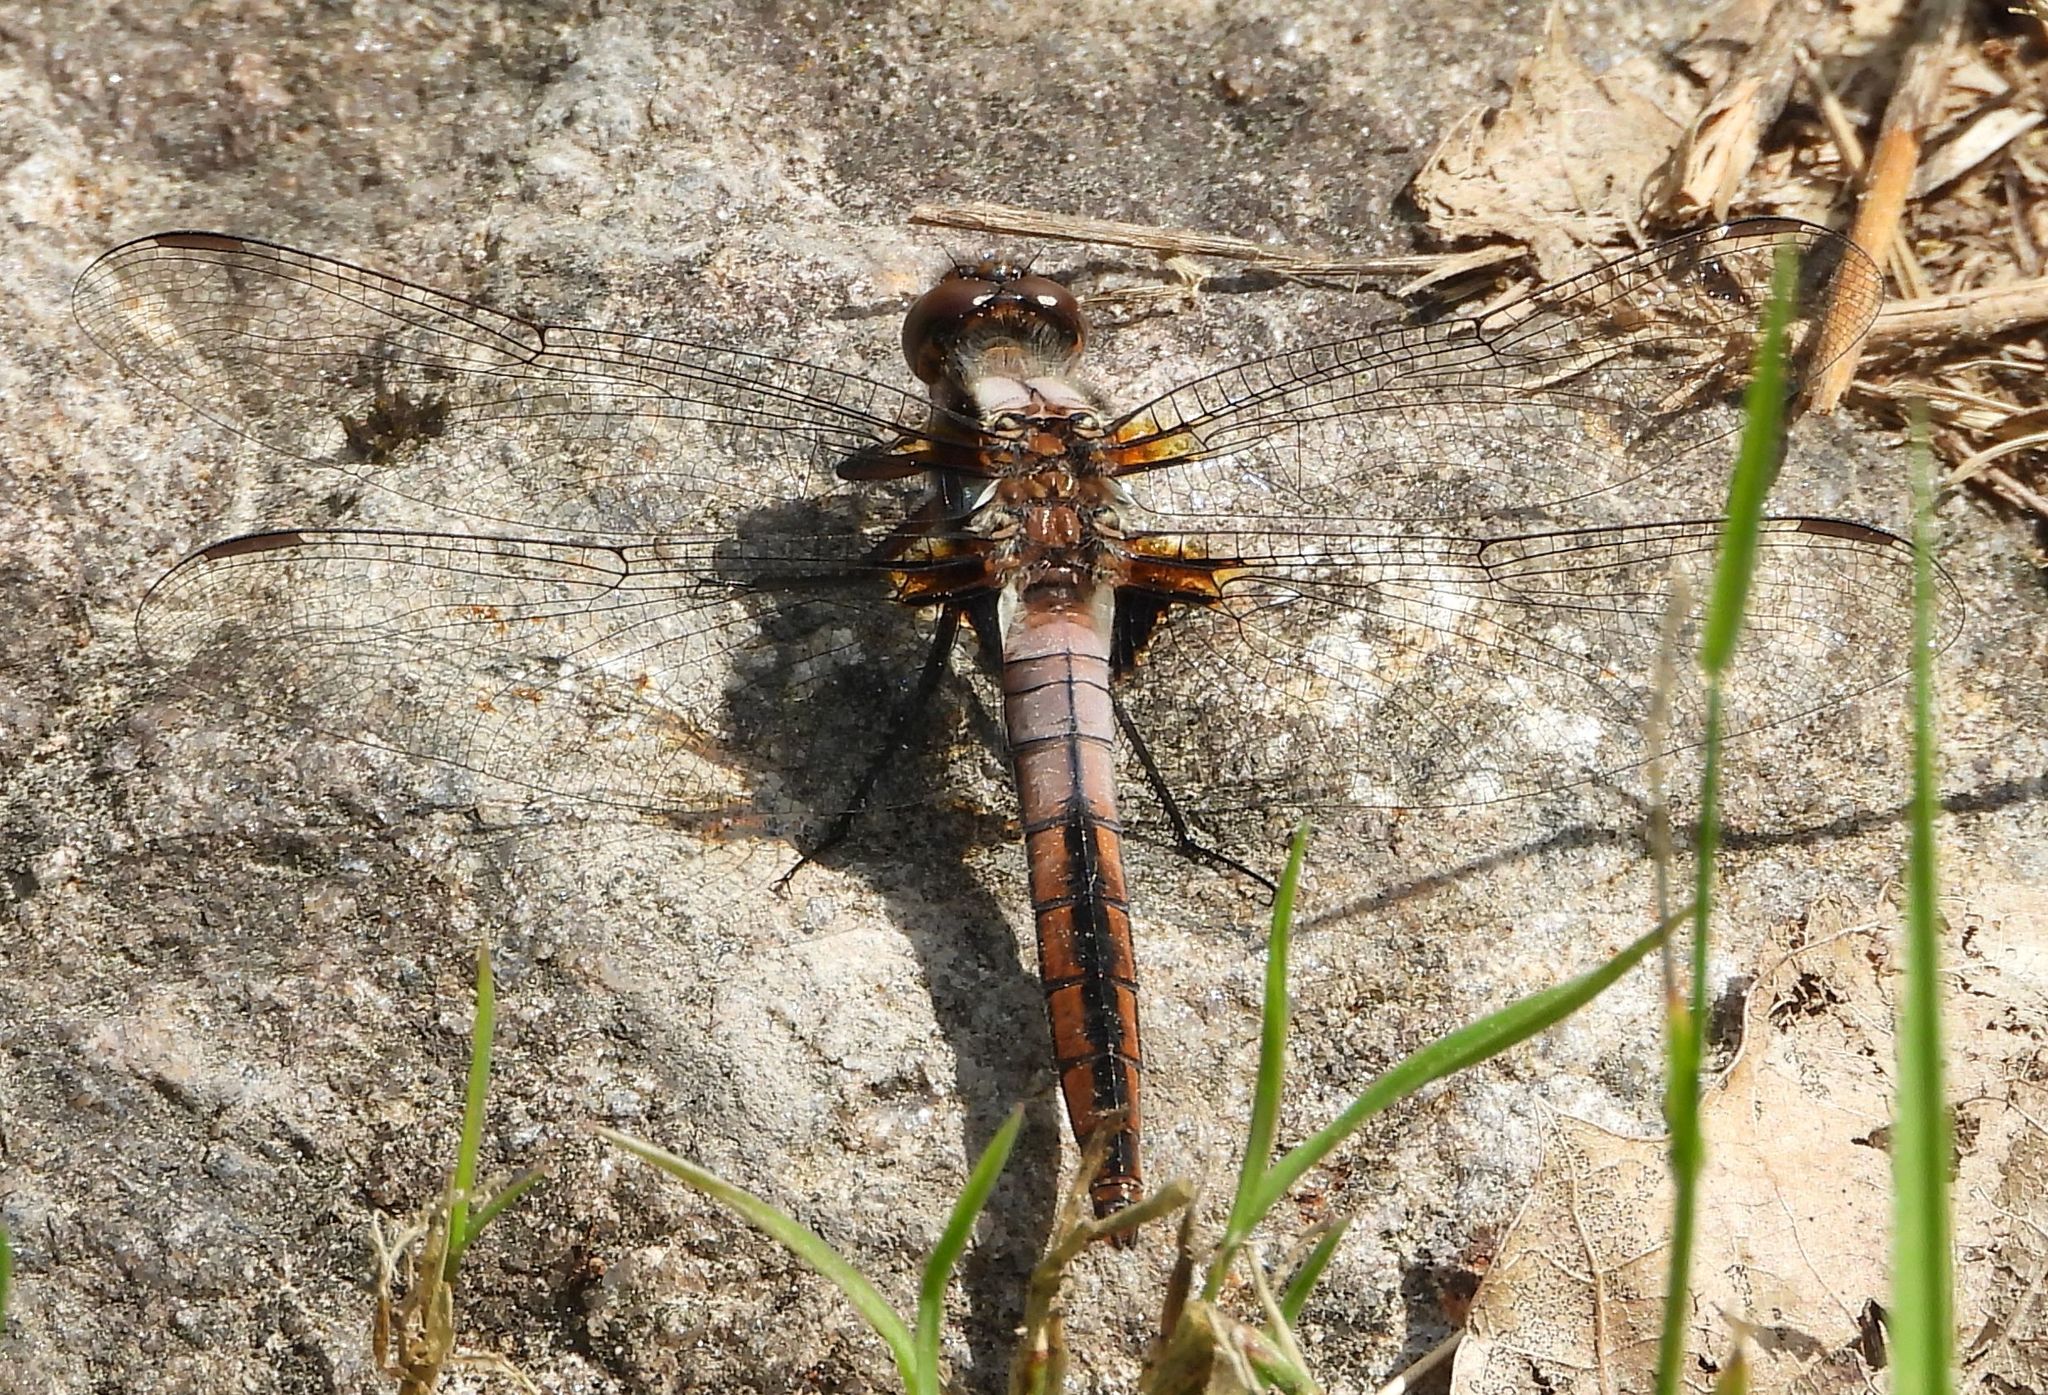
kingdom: Animalia
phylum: Arthropoda
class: Insecta
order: Odonata
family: Libellulidae
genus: Ladona
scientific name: Ladona julia
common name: Chalk-fronted corporal
